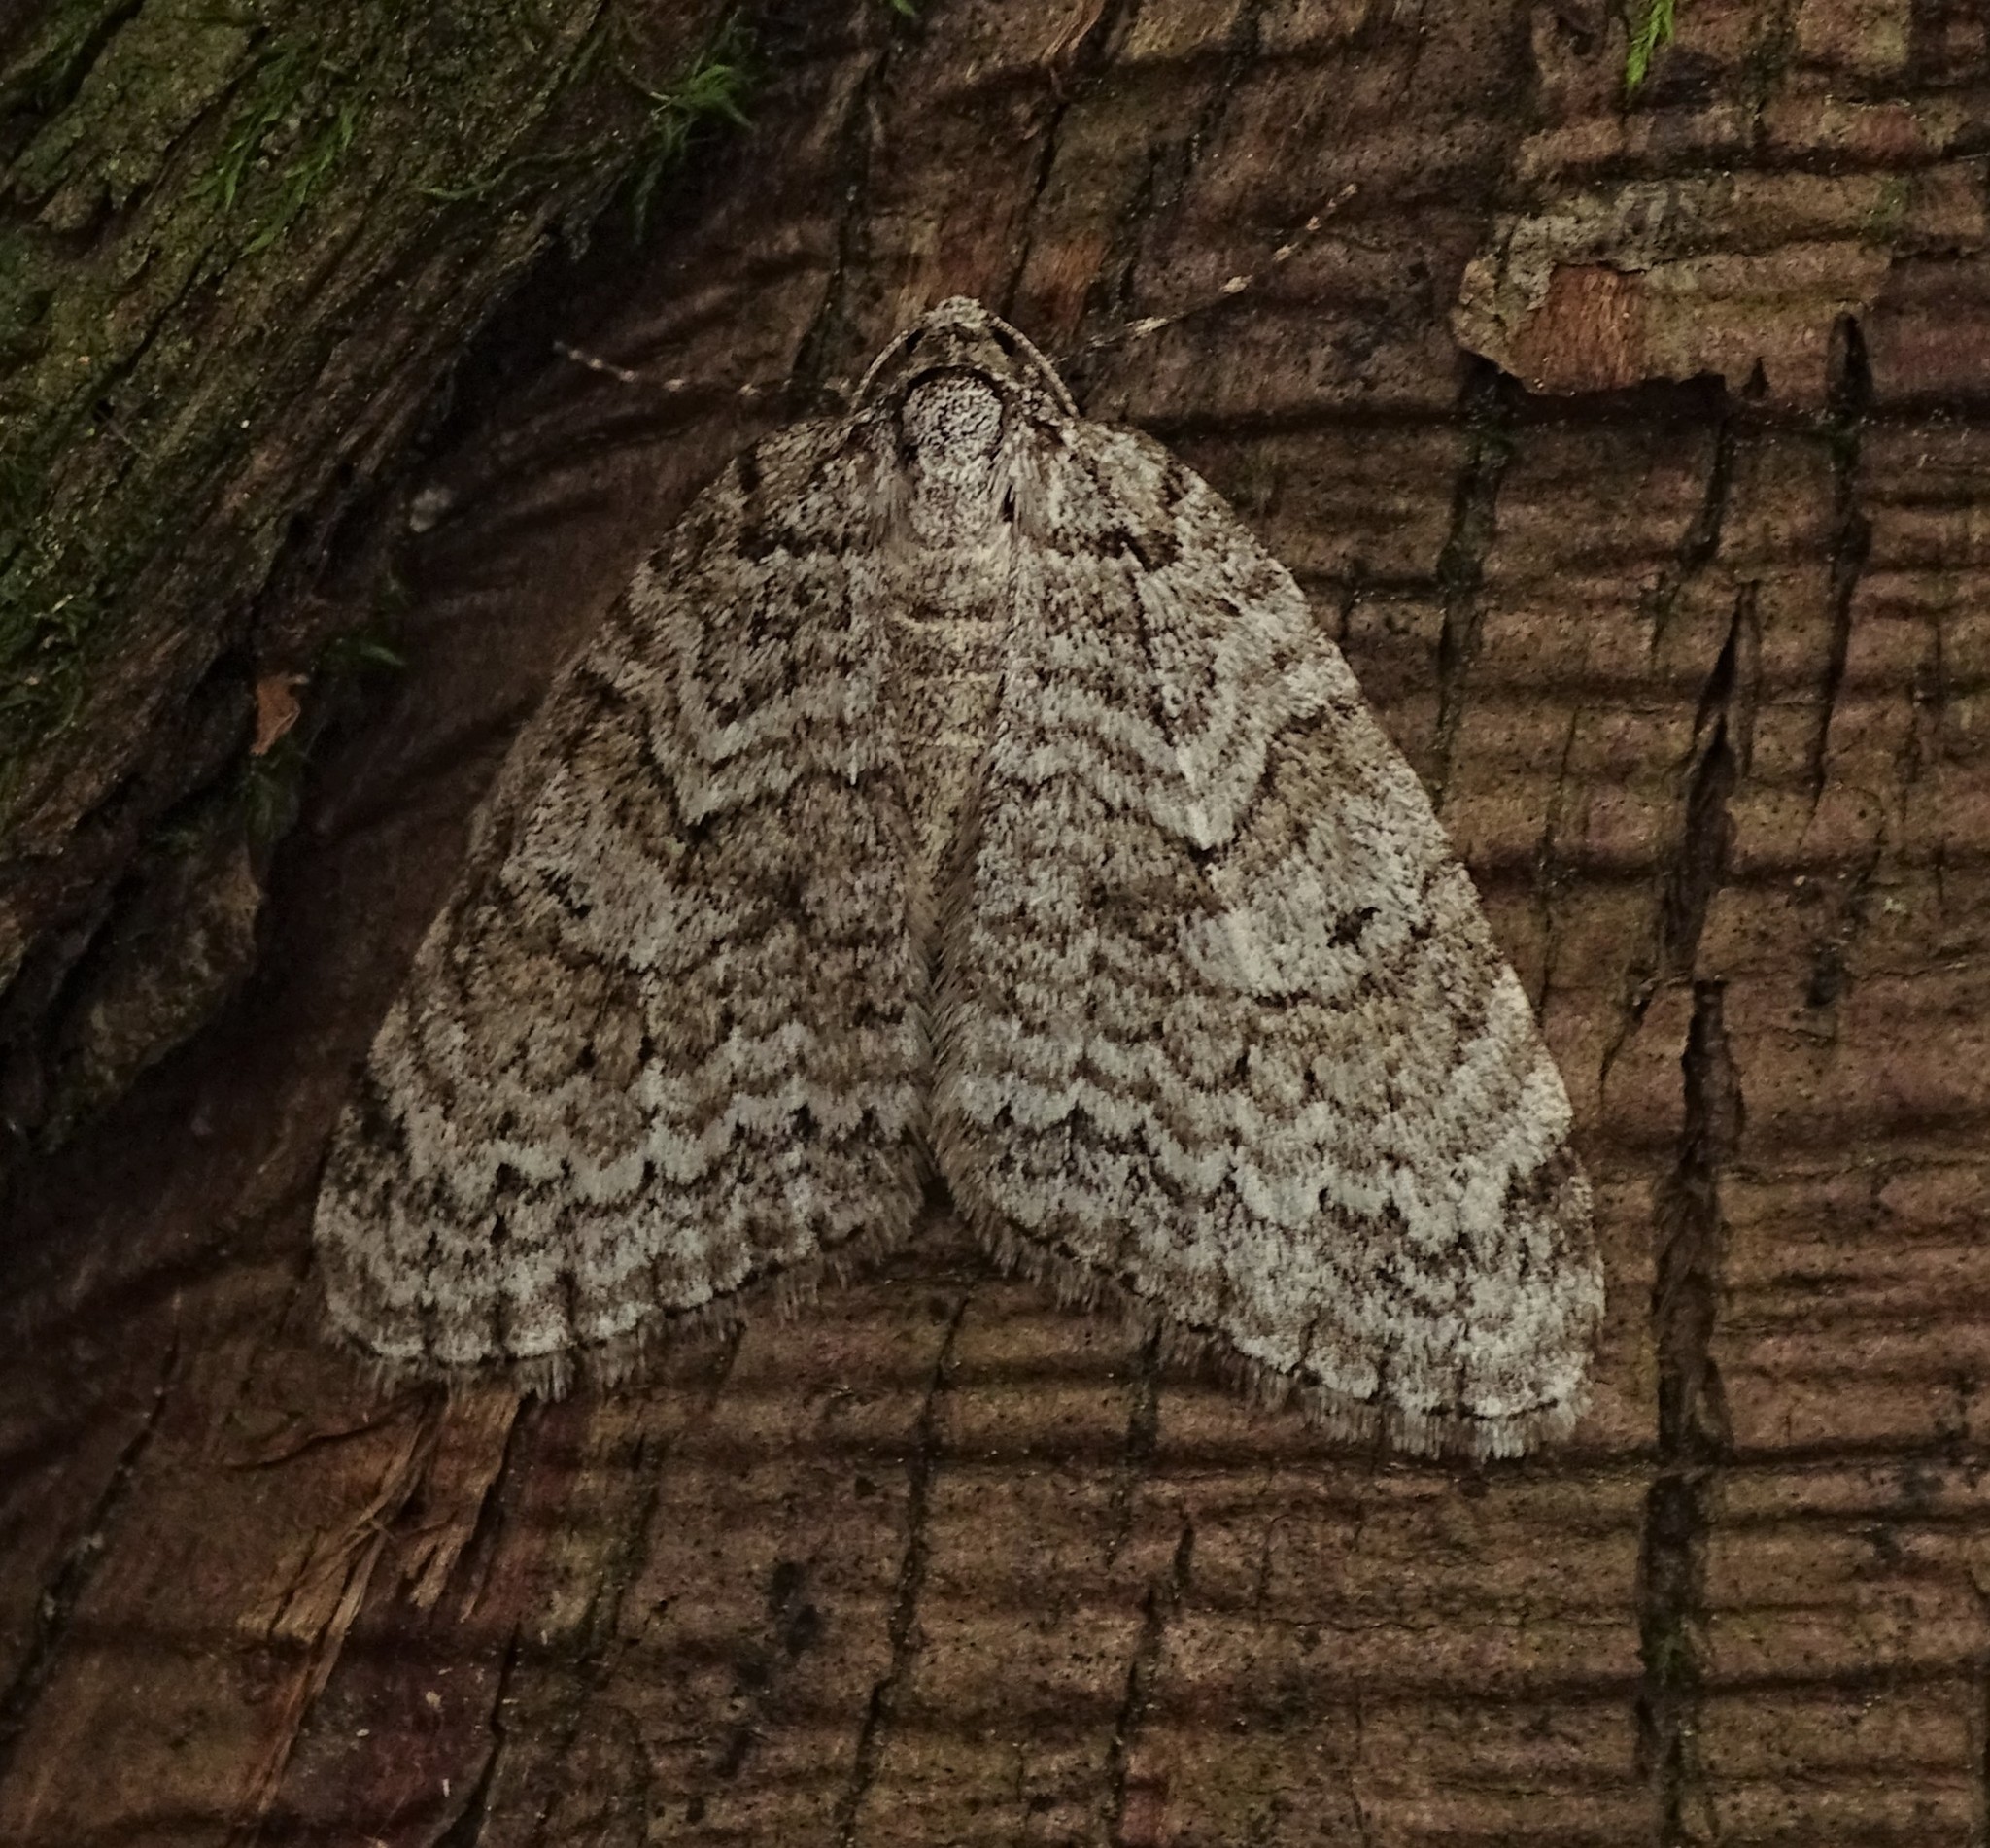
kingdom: Animalia
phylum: Arthropoda
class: Insecta
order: Lepidoptera
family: Geometridae
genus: Epirrita
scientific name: Epirrita autumnata
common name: Autumnal moth
